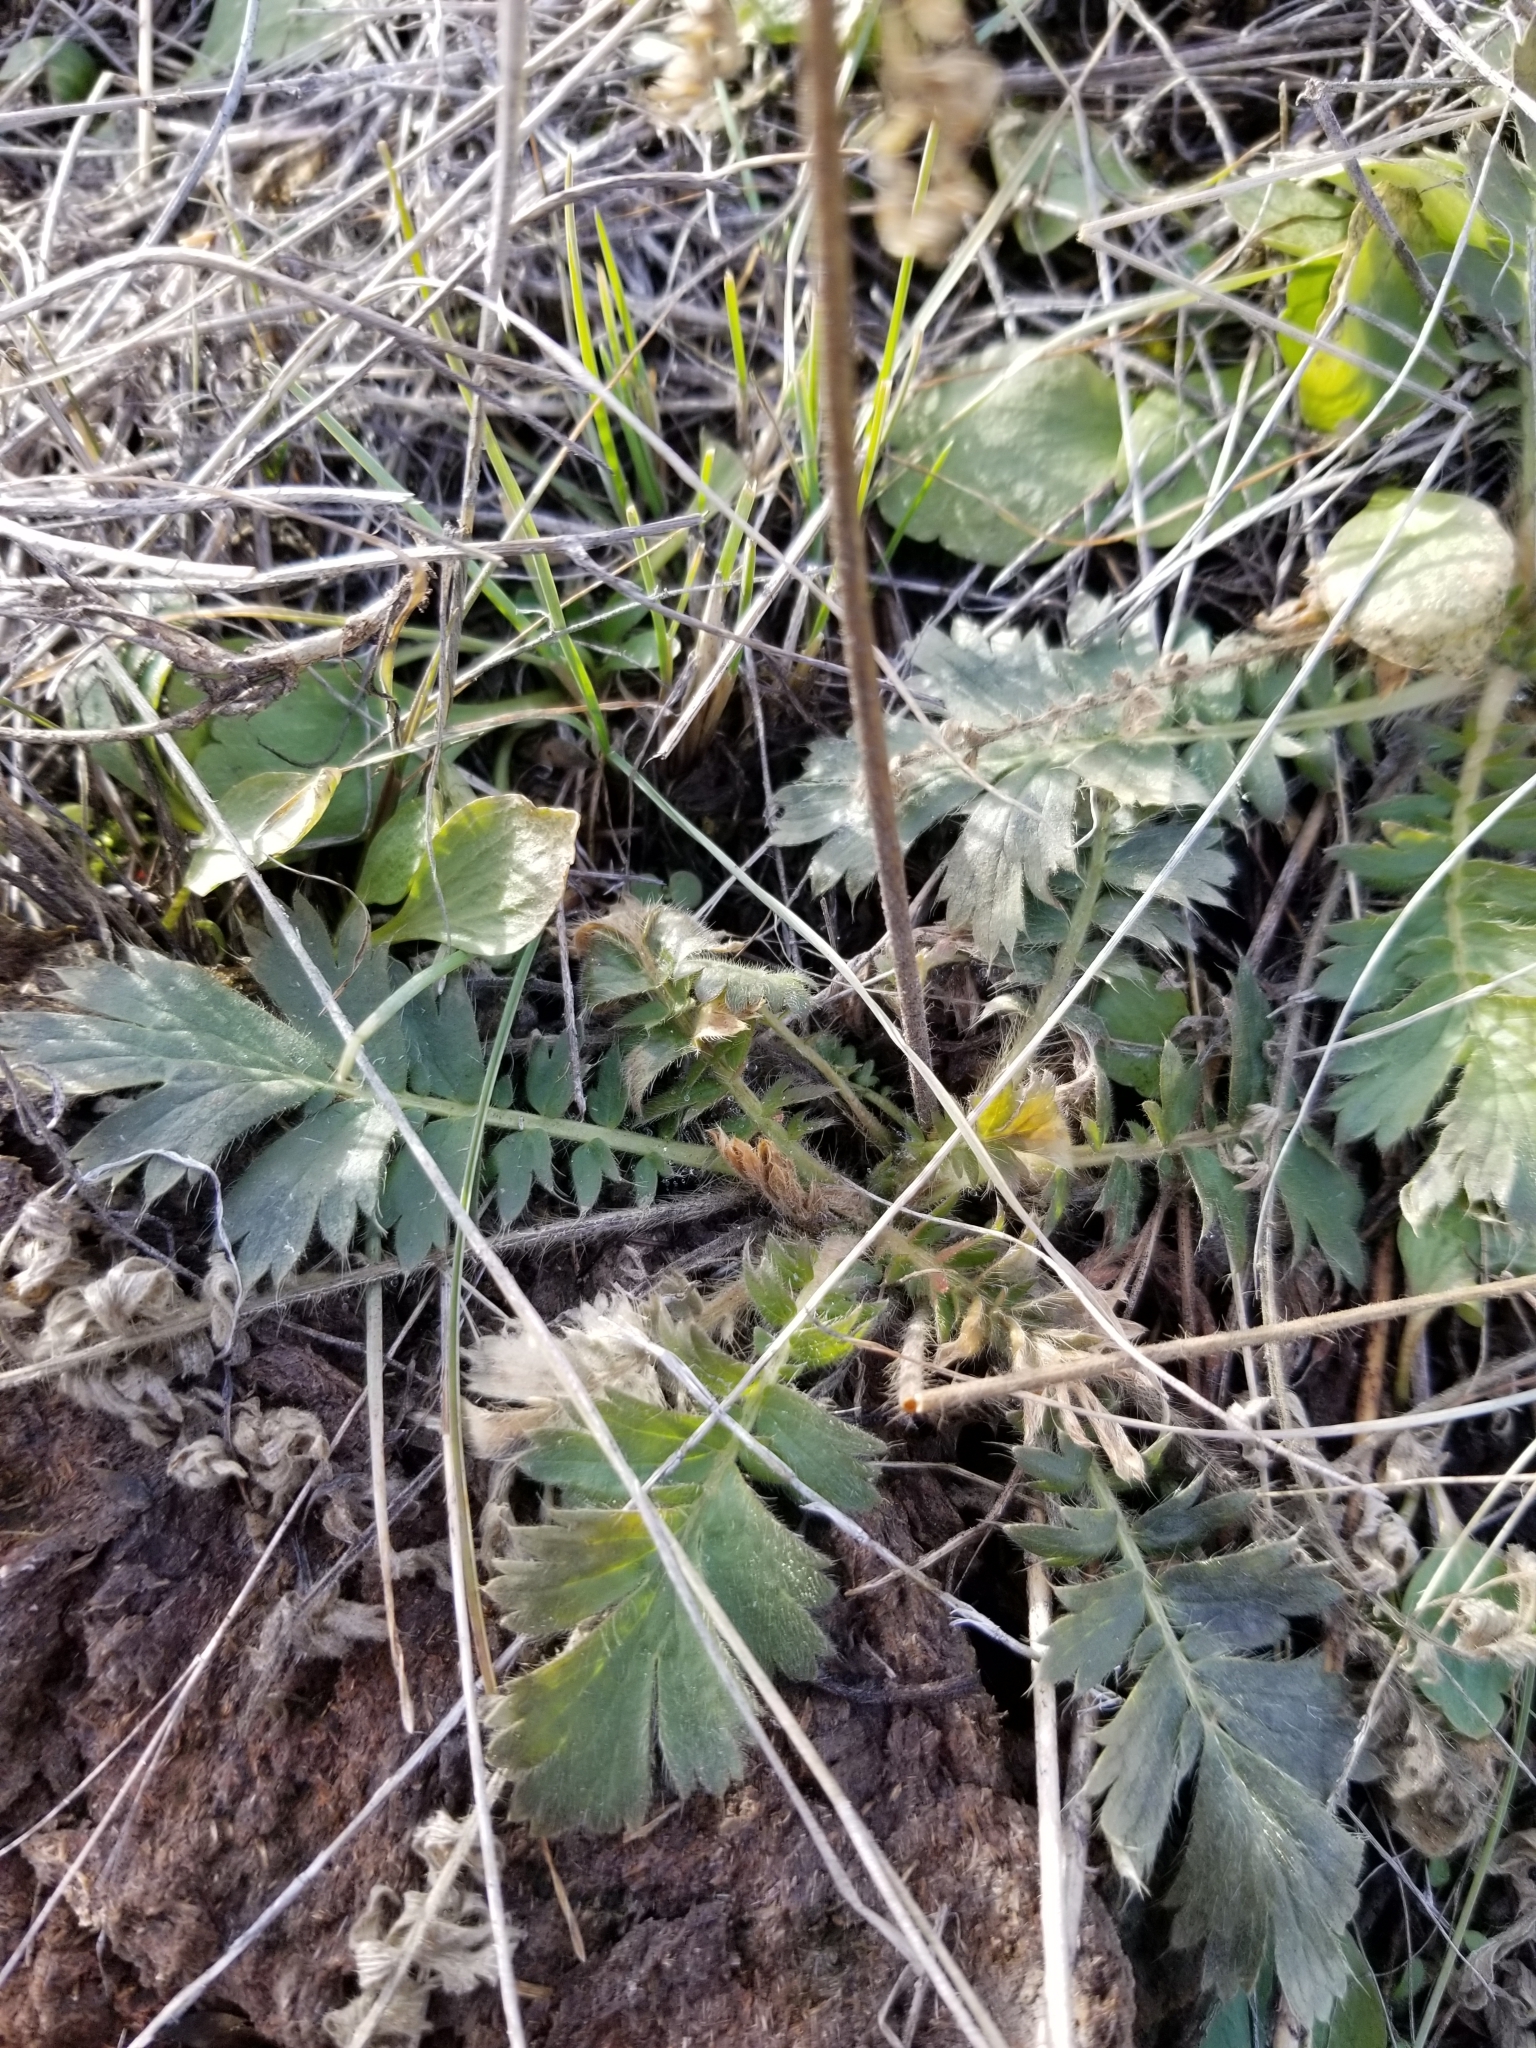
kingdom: Plantae
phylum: Tracheophyta
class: Magnoliopsida
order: Rosales
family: Rosaceae
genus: Geum
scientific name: Geum triflorum
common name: Old man's whiskers
